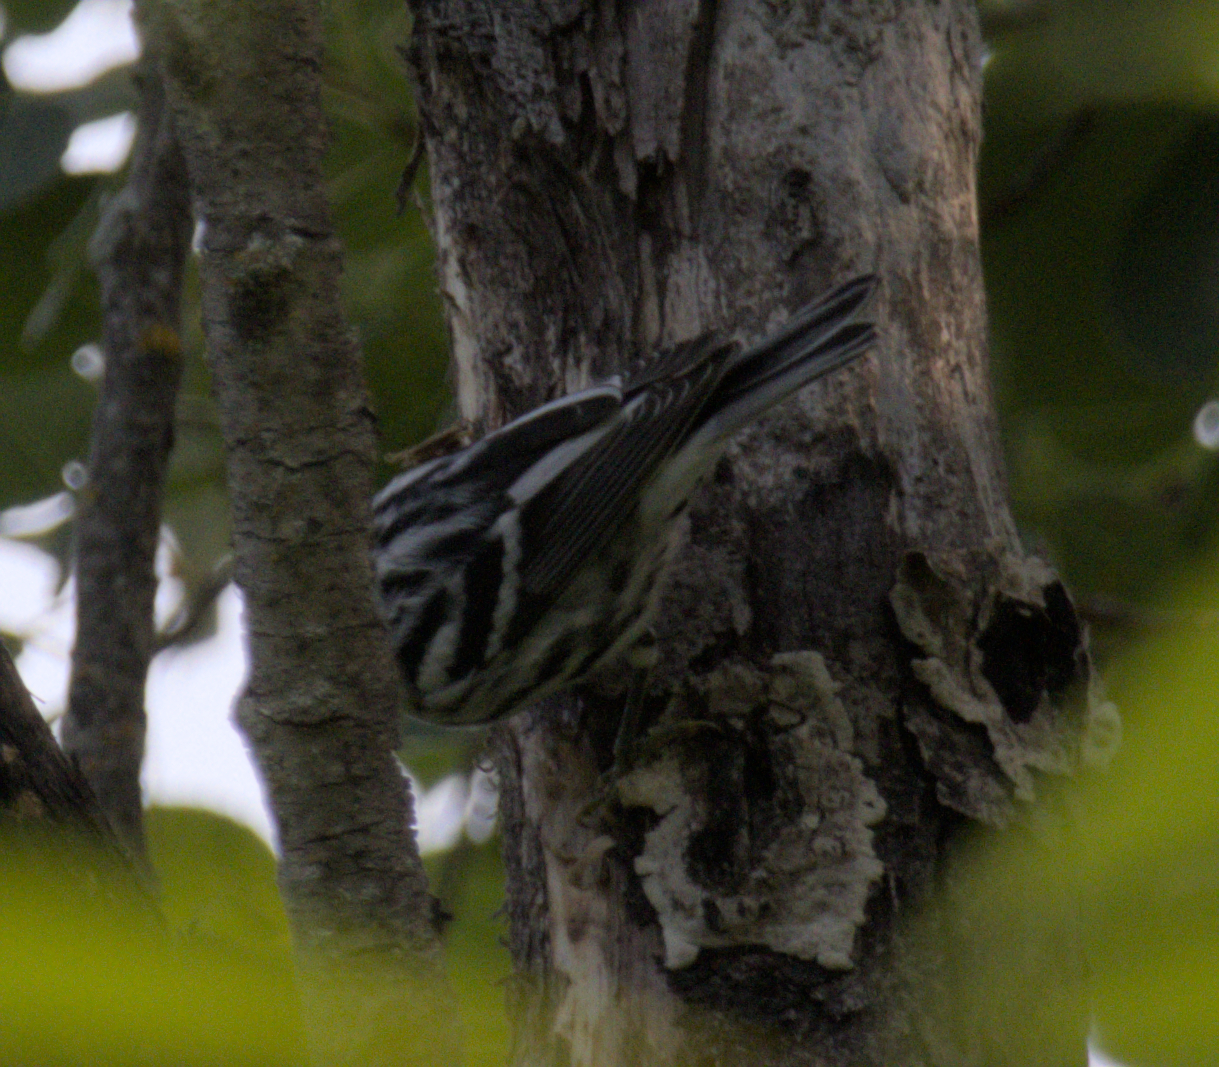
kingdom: Animalia
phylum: Chordata
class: Aves
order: Passeriformes
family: Parulidae
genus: Mniotilta
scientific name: Mniotilta varia
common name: Black-and-white warbler
